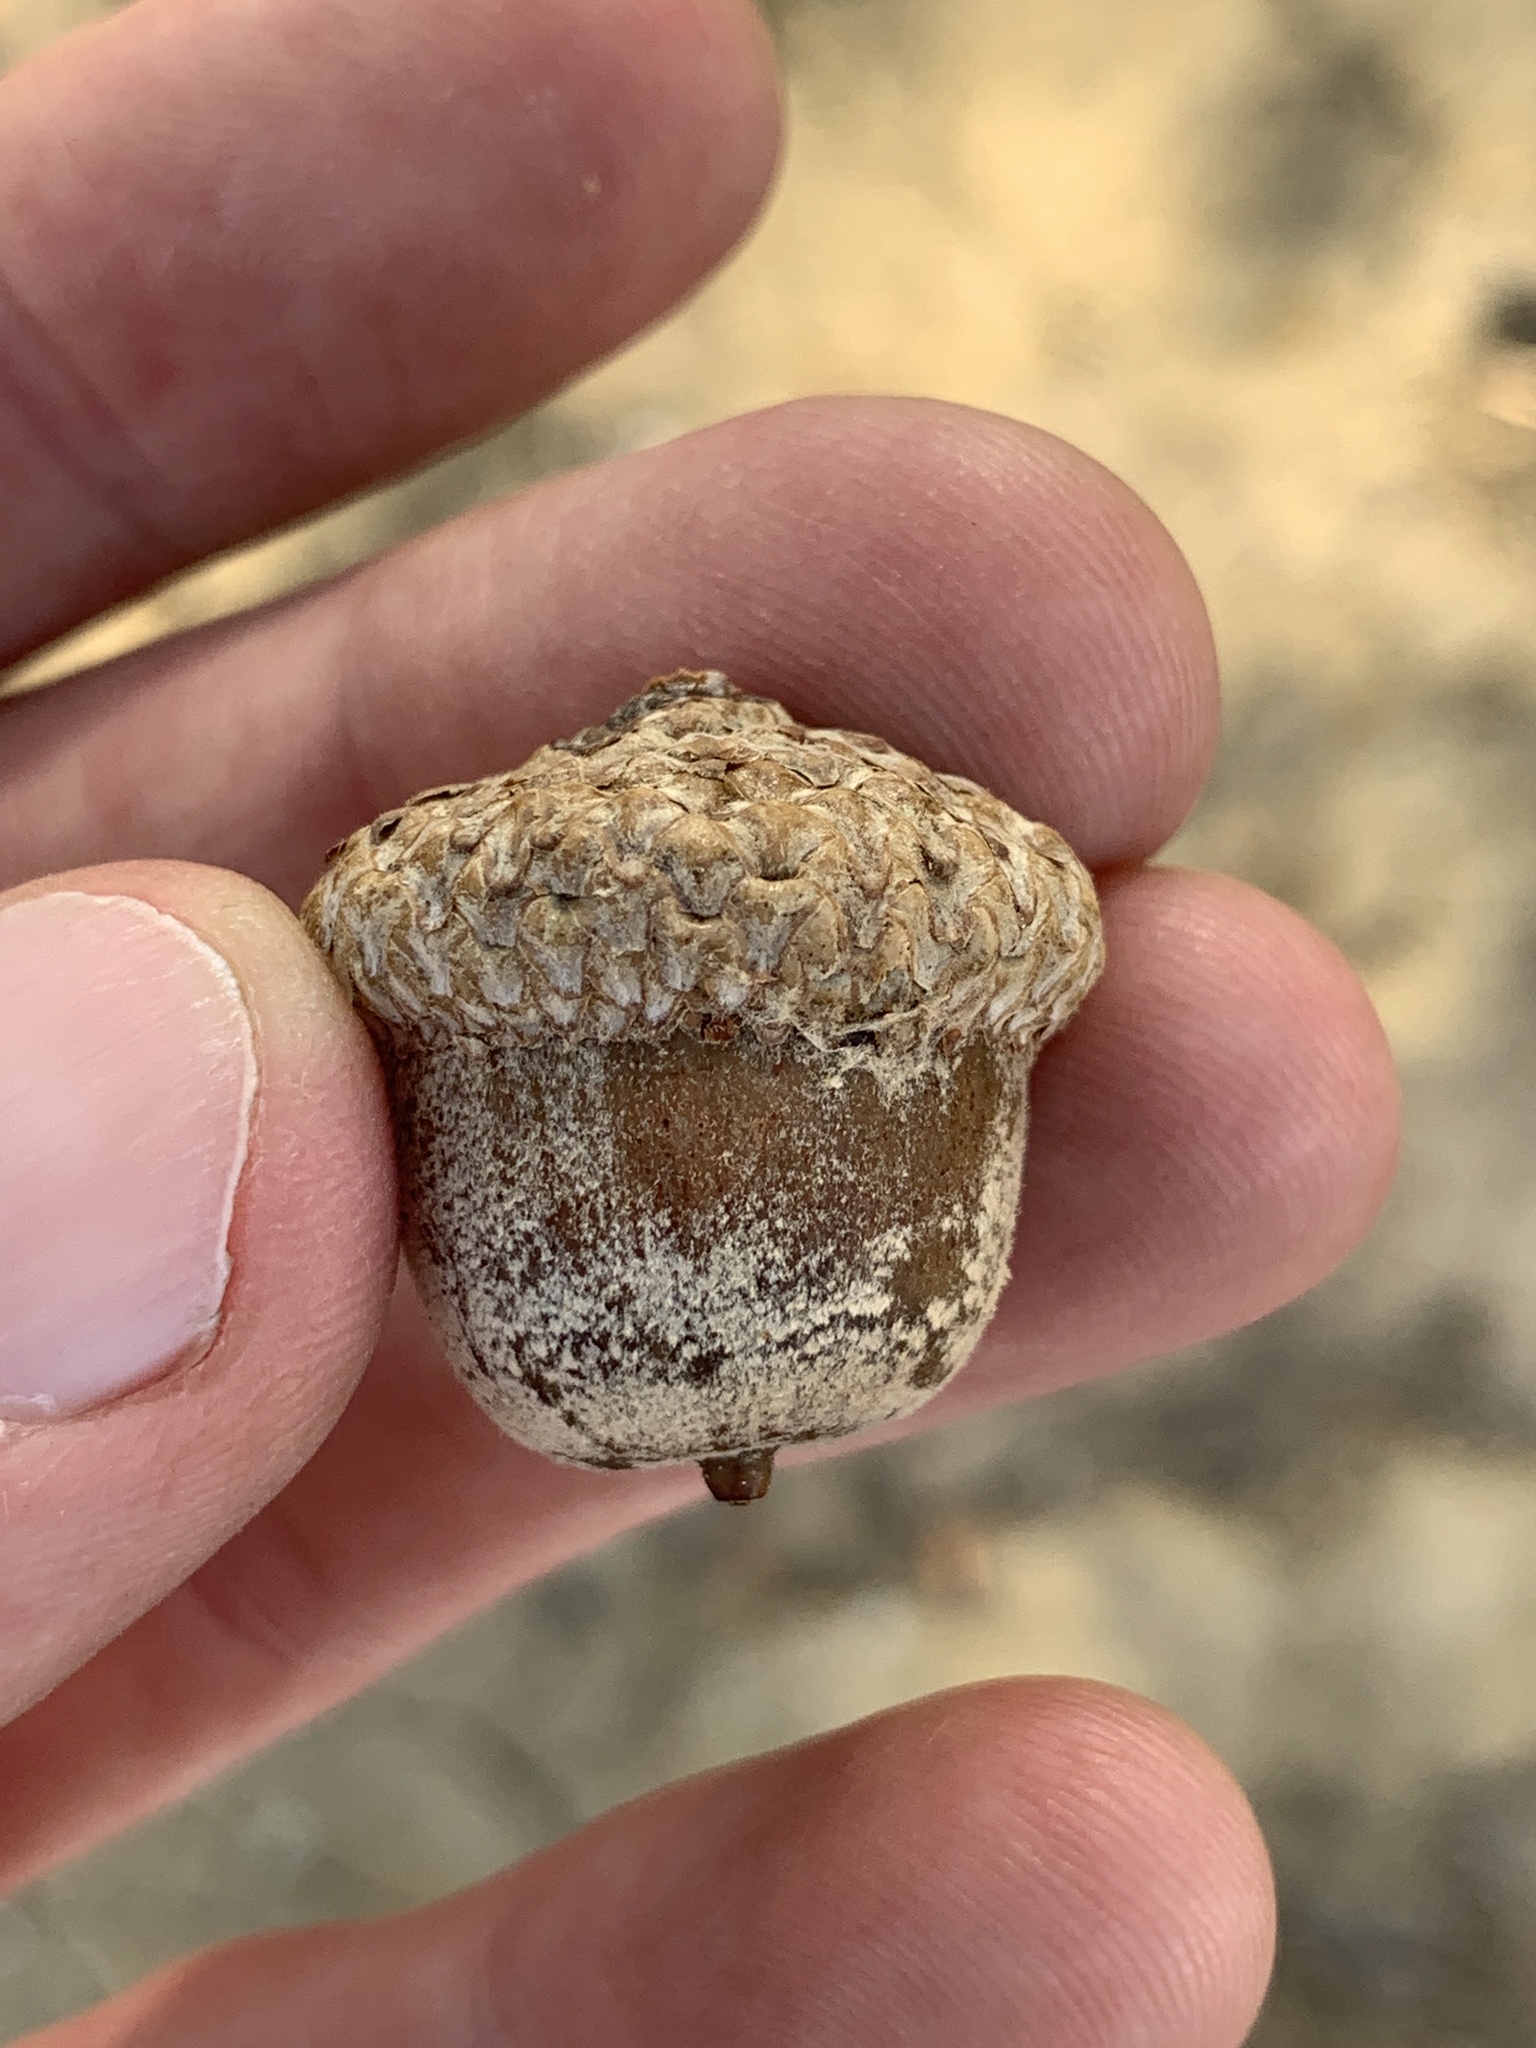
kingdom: Plantae
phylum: Tracheophyta
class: Magnoliopsida
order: Fagales
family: Fagaceae
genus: Quercus
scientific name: Quercus shumardii
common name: Shumard oak
